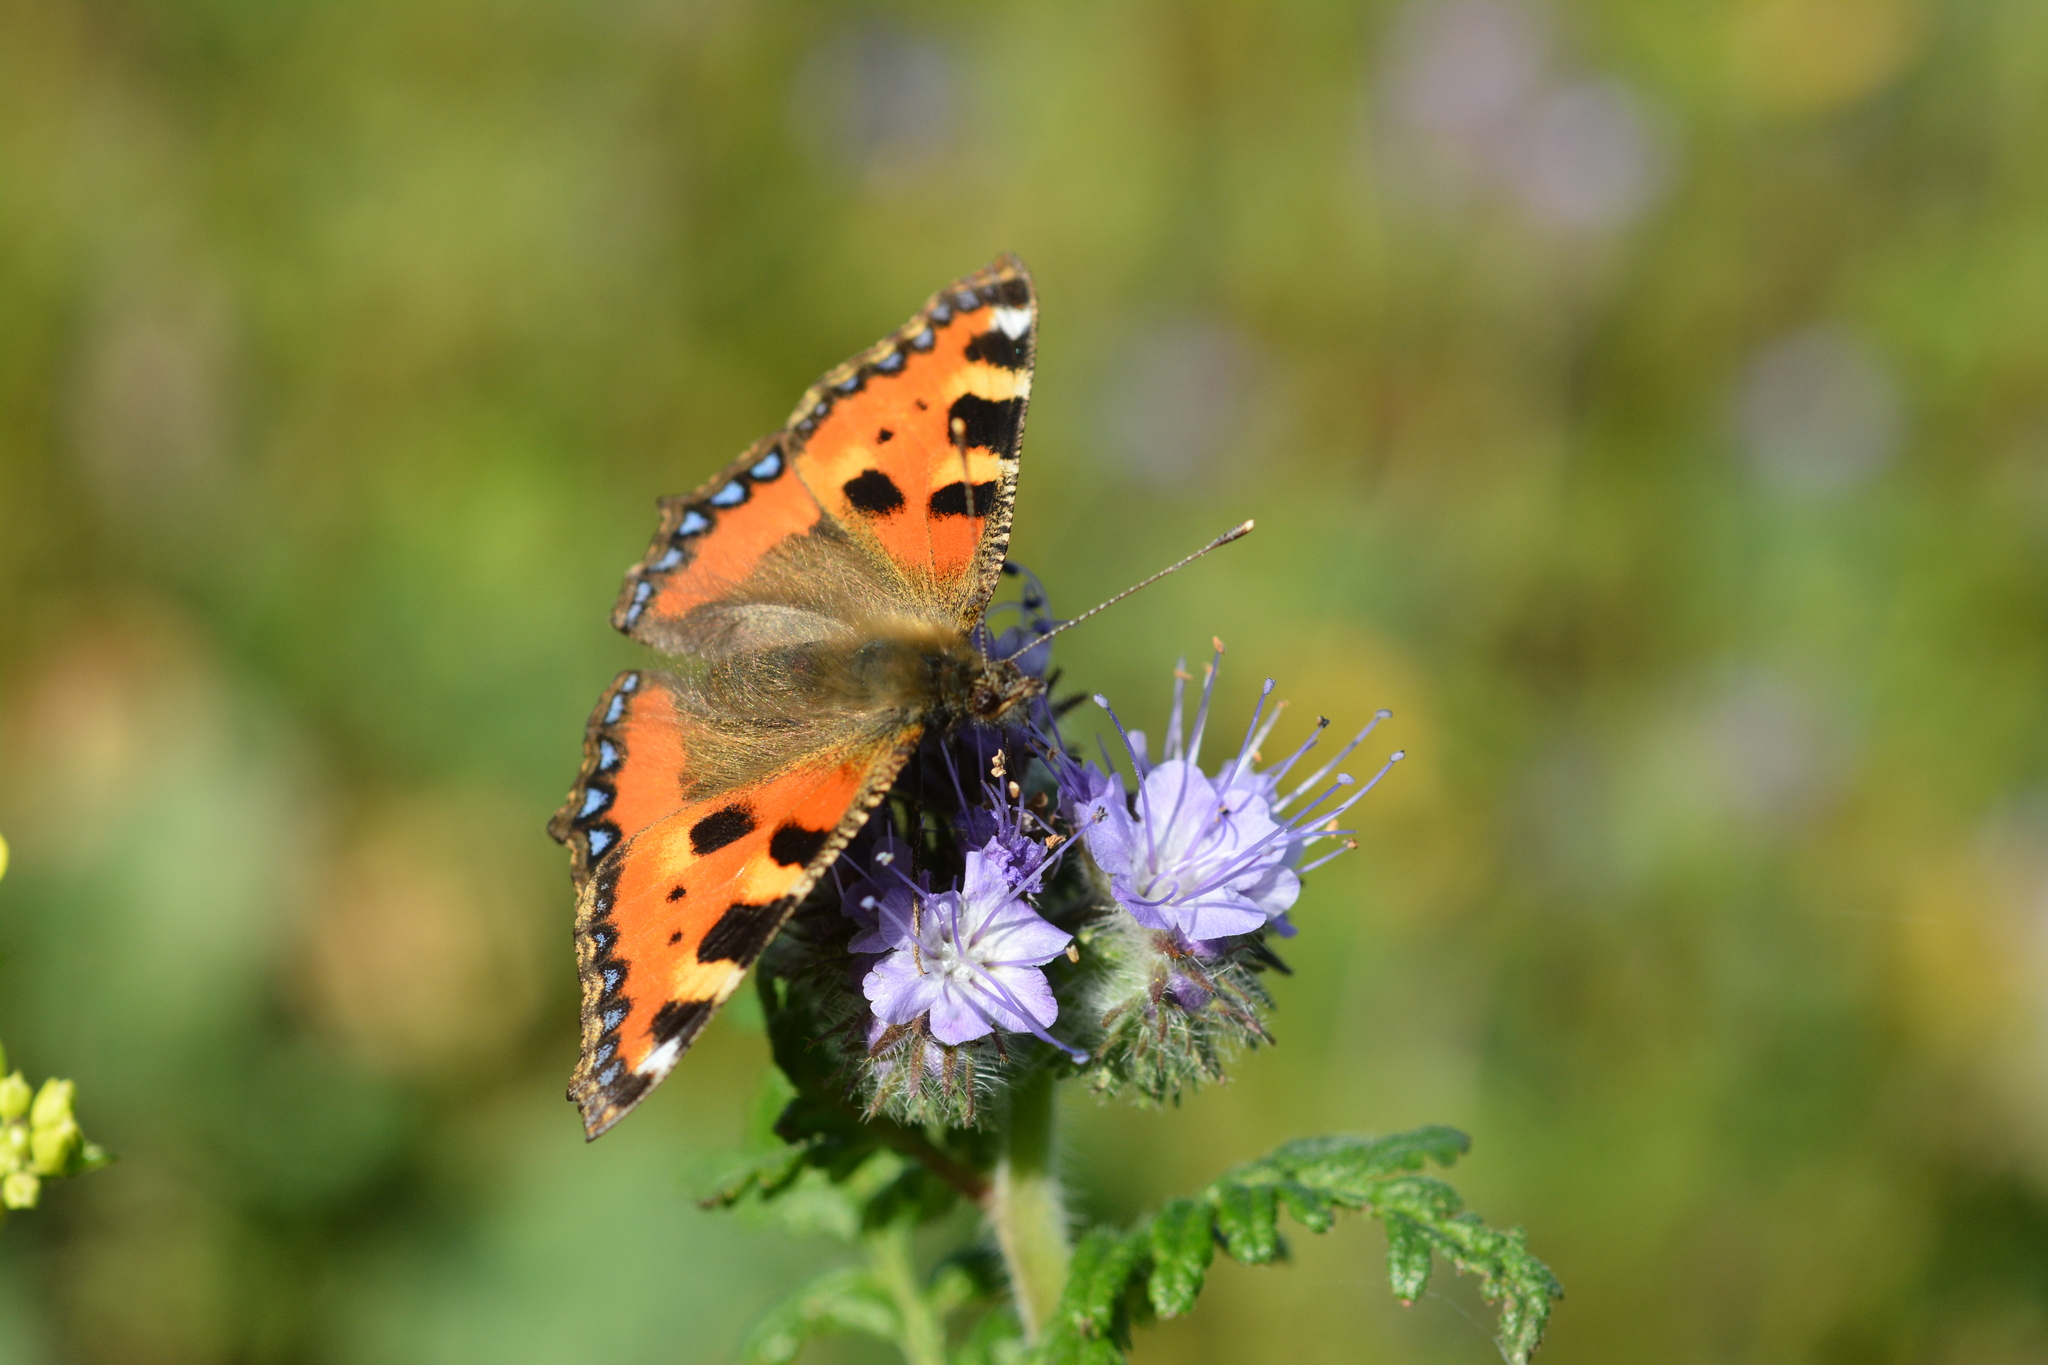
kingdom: Animalia
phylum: Arthropoda
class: Insecta
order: Lepidoptera
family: Nymphalidae
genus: Aglais
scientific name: Aglais urticae
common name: Small tortoiseshell
